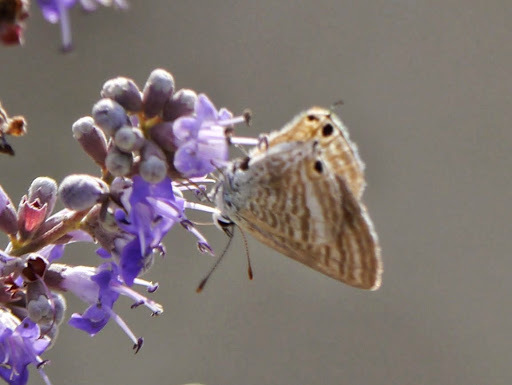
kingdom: Animalia
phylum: Arthropoda
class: Insecta
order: Lepidoptera
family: Lycaenidae
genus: Lampides
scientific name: Lampides boeticus
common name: Long-tailed blue
